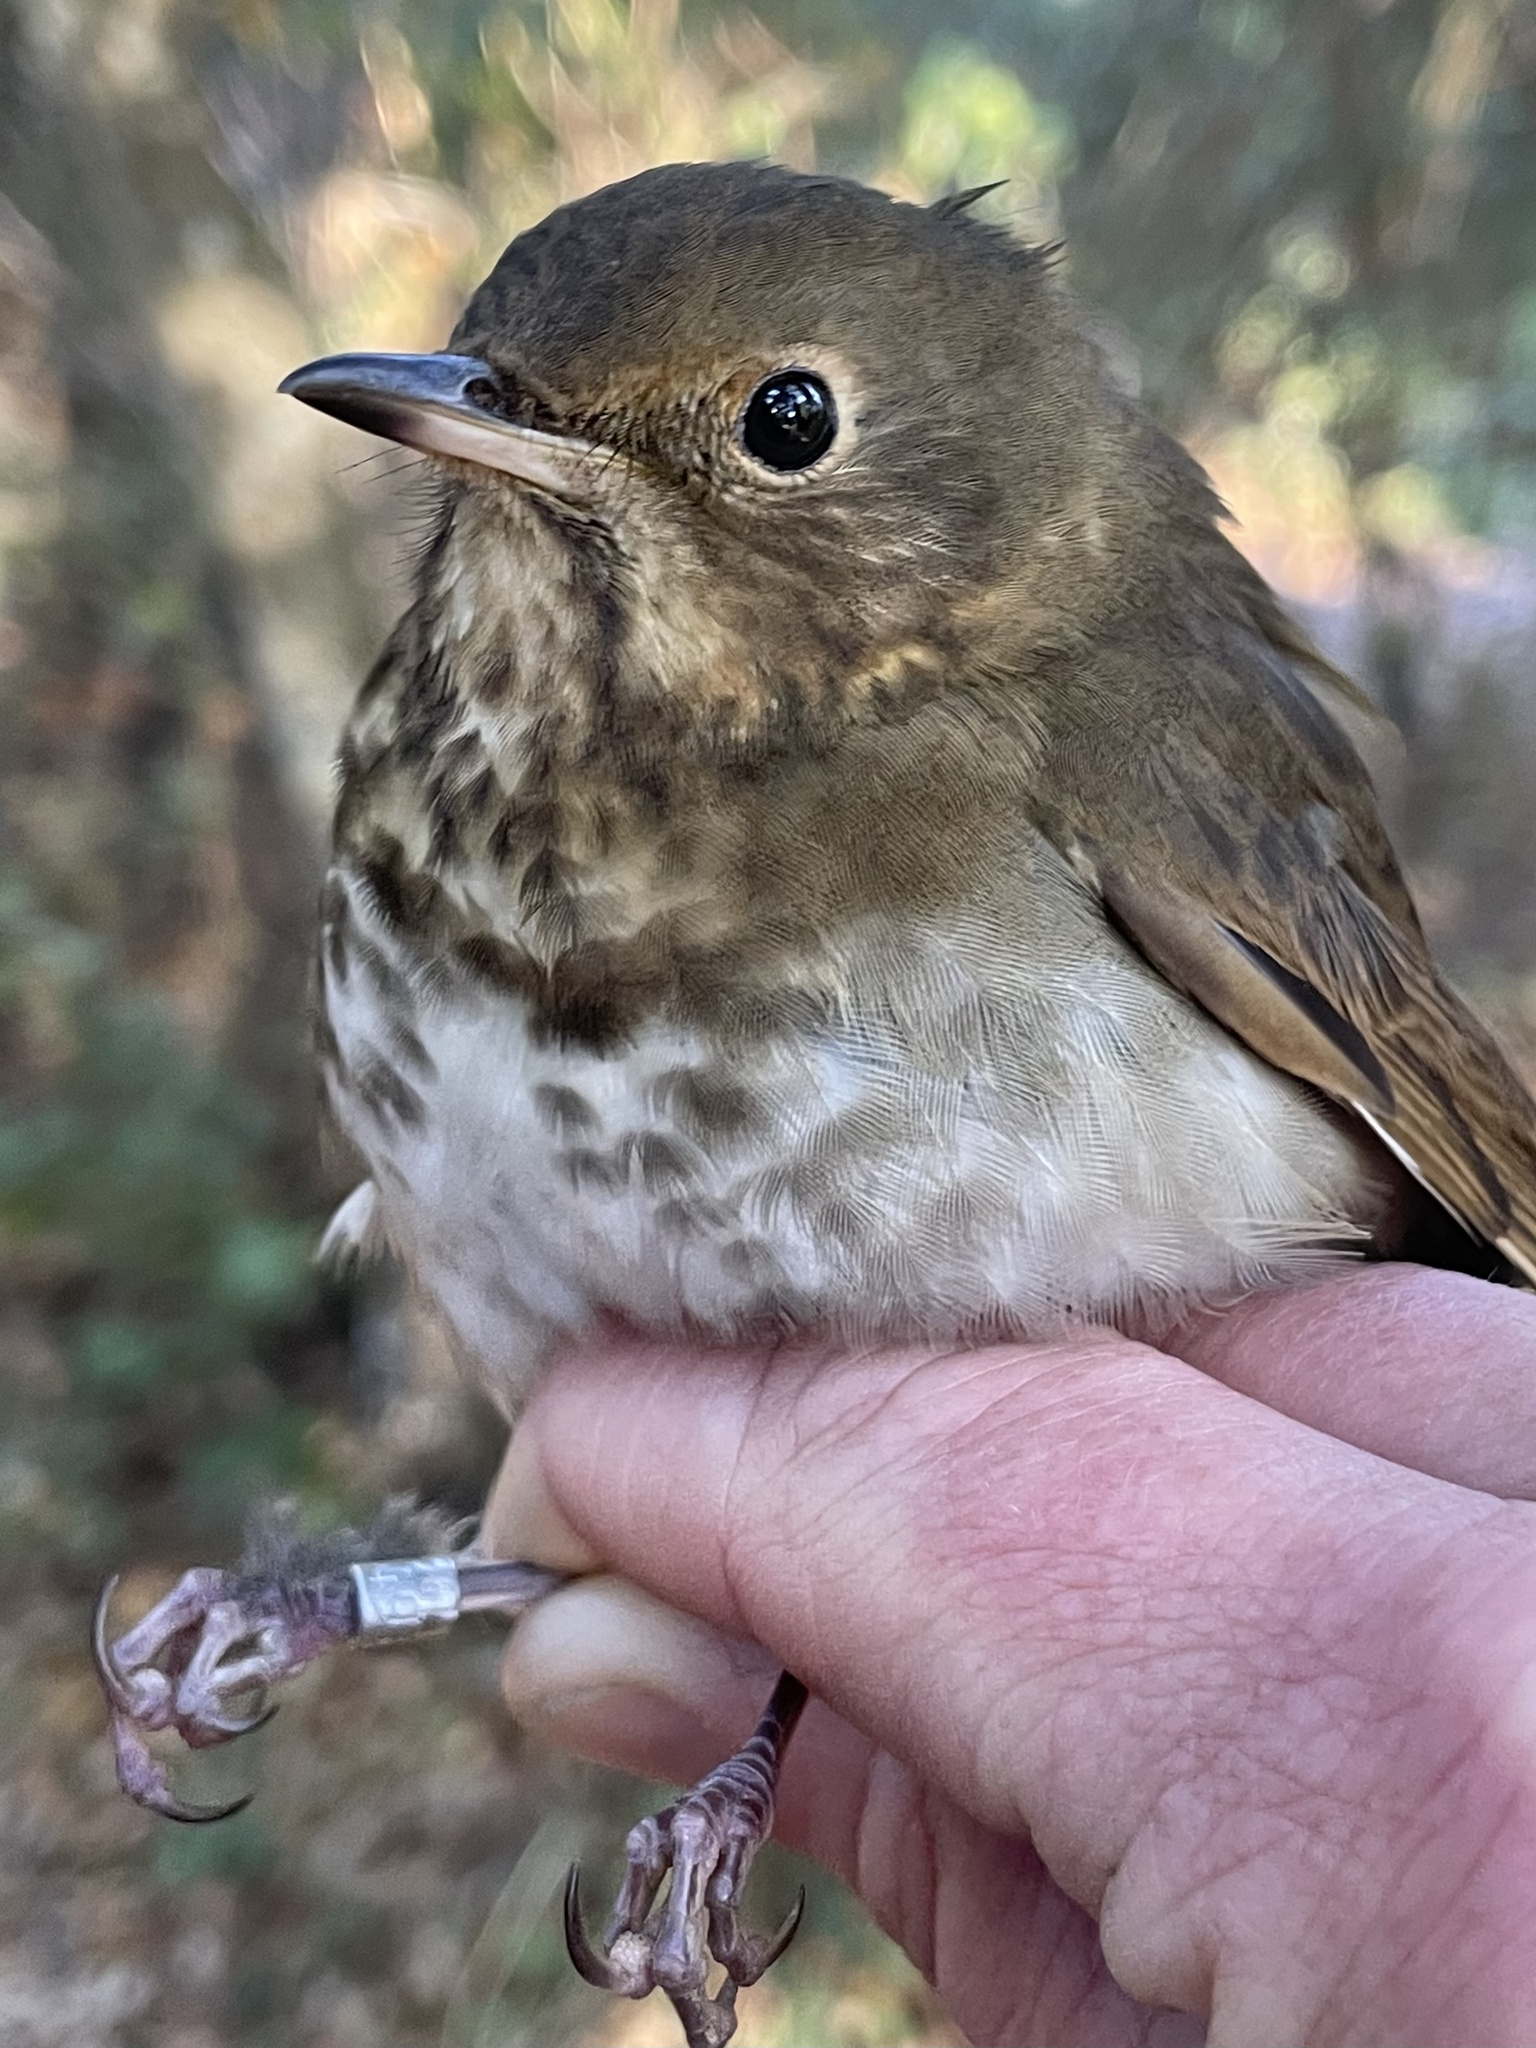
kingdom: Animalia
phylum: Chordata
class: Aves
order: Passeriformes
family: Turdidae
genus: Catharus
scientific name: Catharus ustulatus
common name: Swainson's thrush
